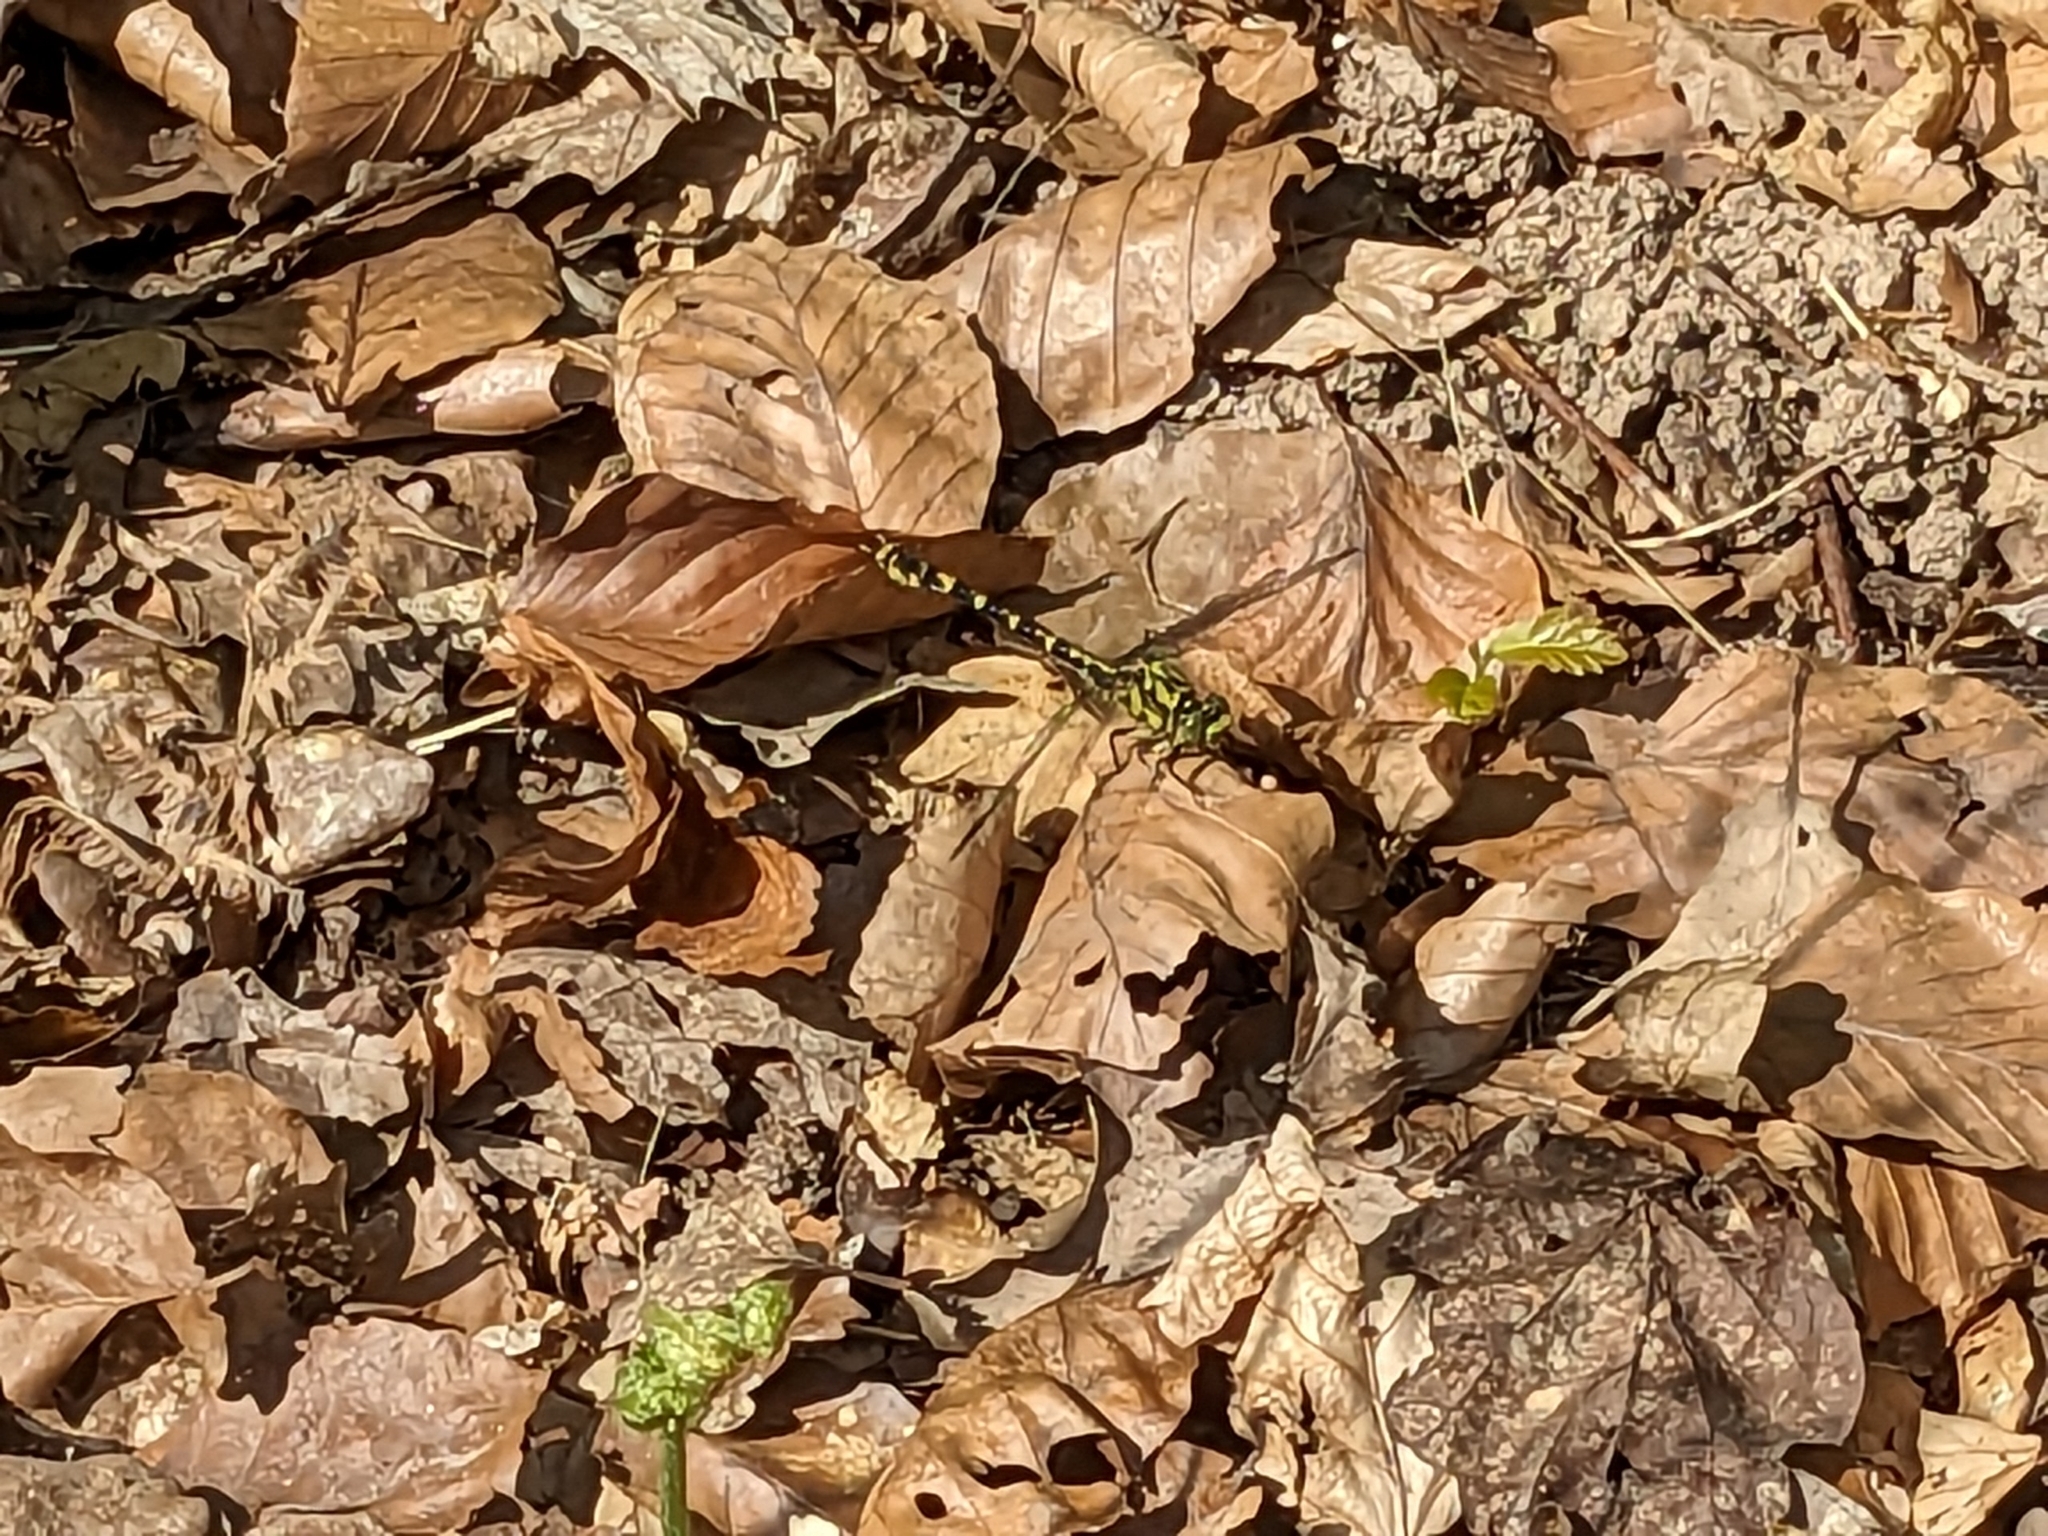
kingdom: Animalia
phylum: Arthropoda
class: Insecta
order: Odonata
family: Gomphidae
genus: Onychogomphus
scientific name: Onychogomphus forcipatus
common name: Small pincertail
